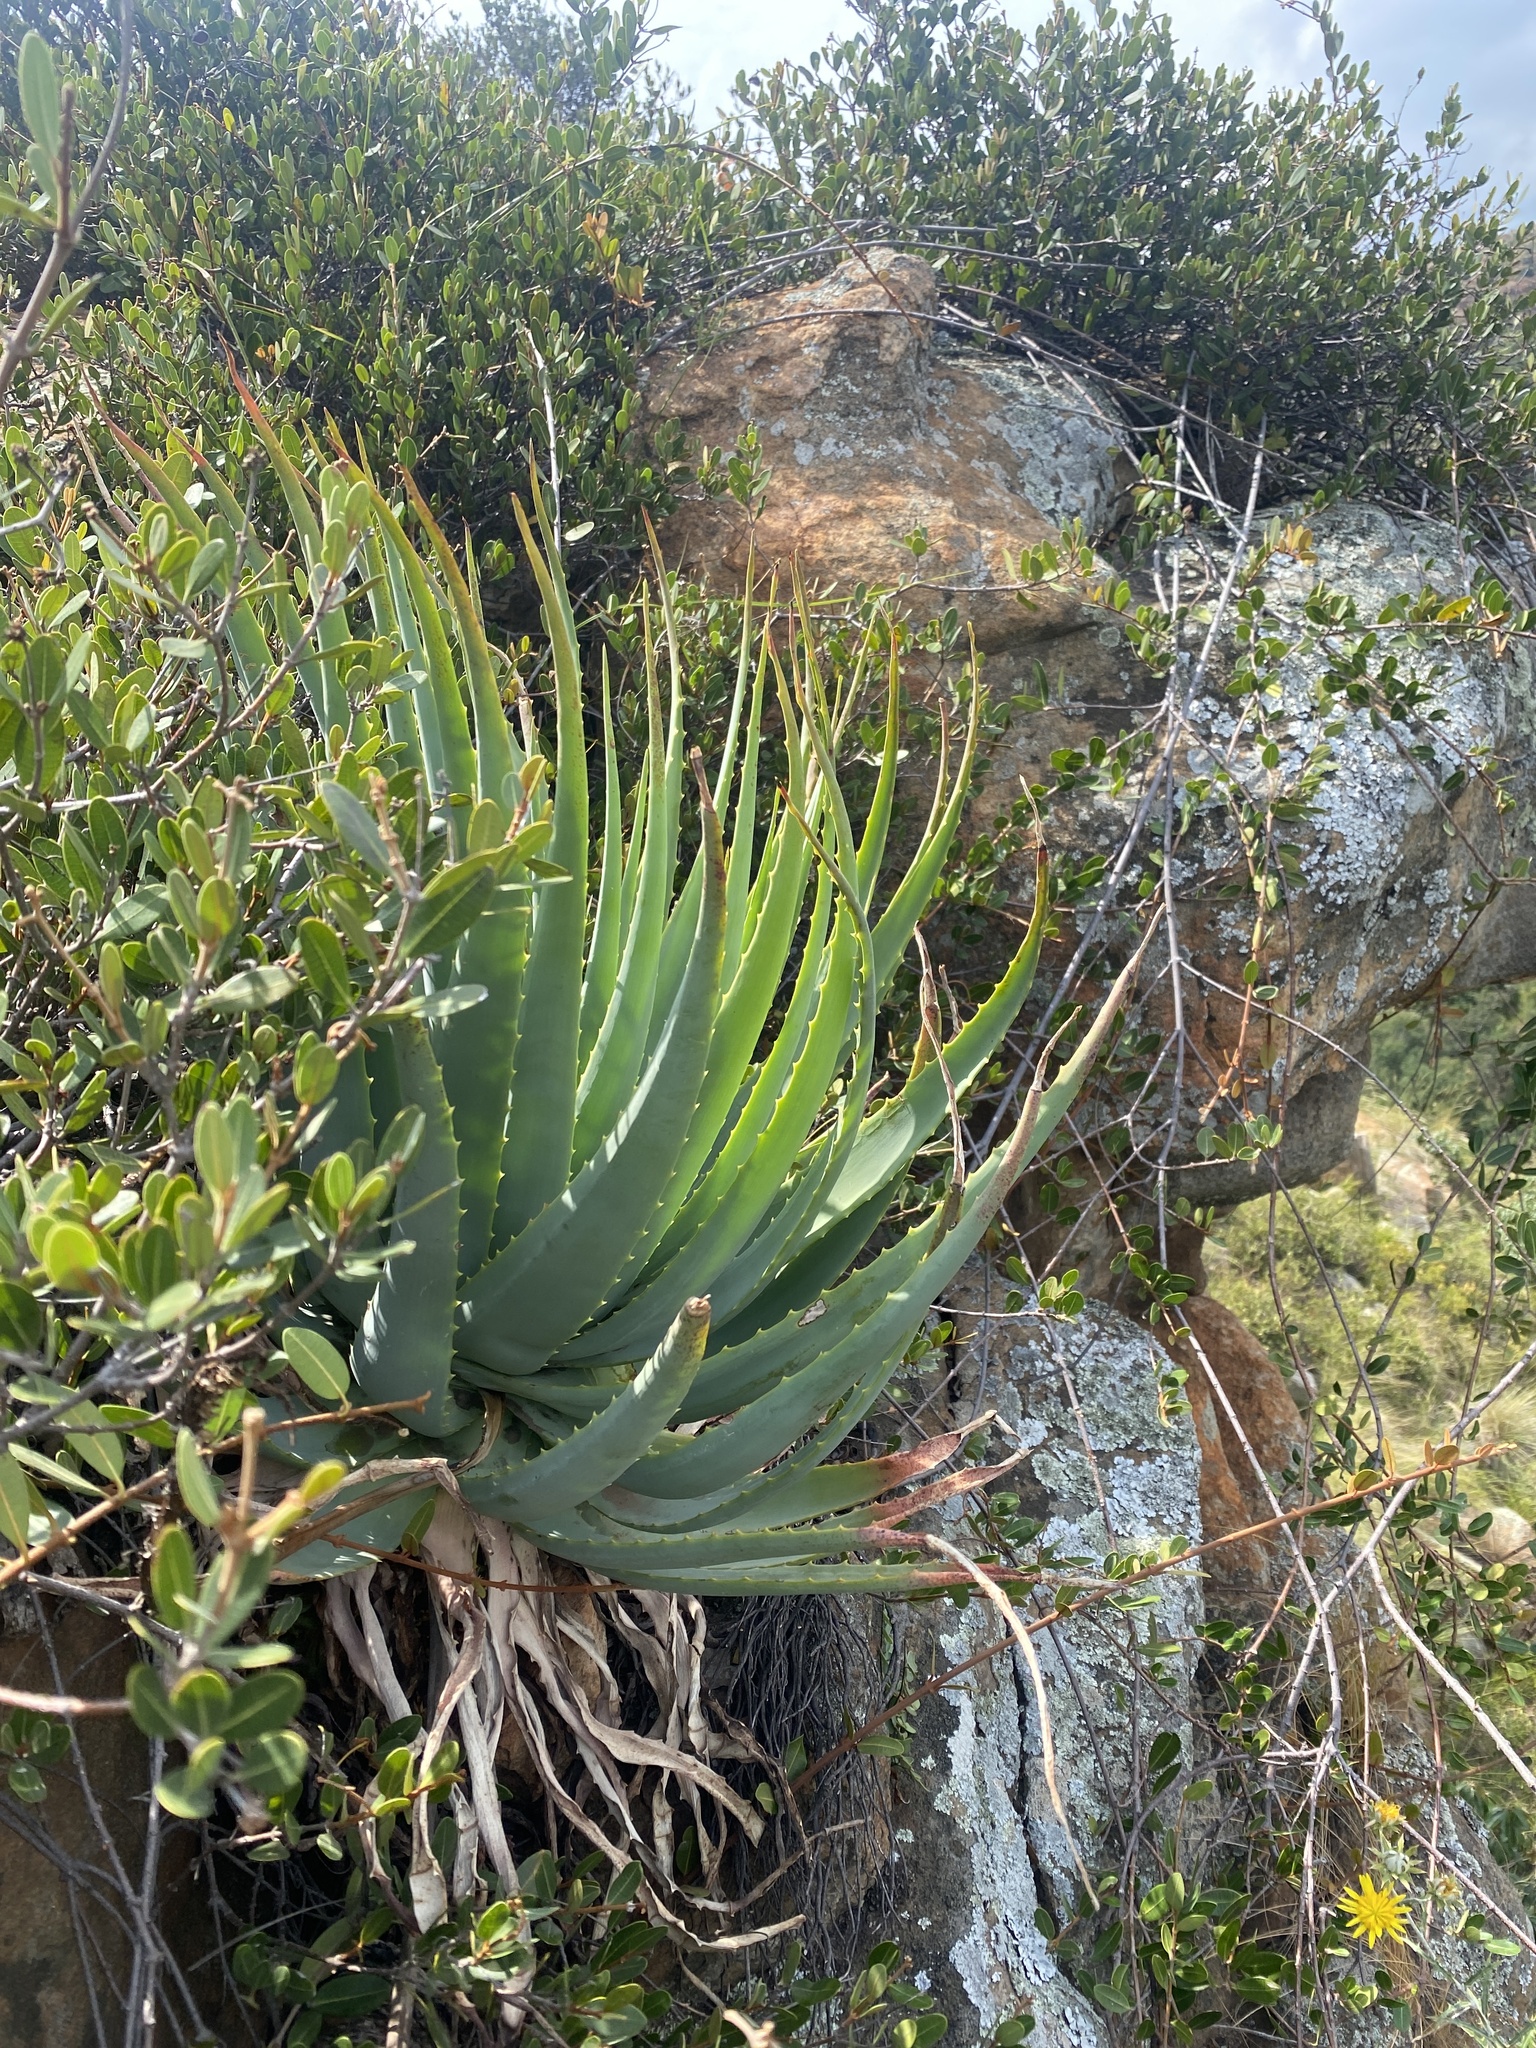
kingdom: Plantae
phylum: Tracheophyta
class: Liliopsida
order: Asparagales
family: Asphodelaceae
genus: Aloe
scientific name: Aloe mutabilis
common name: Blue krantz aloe
